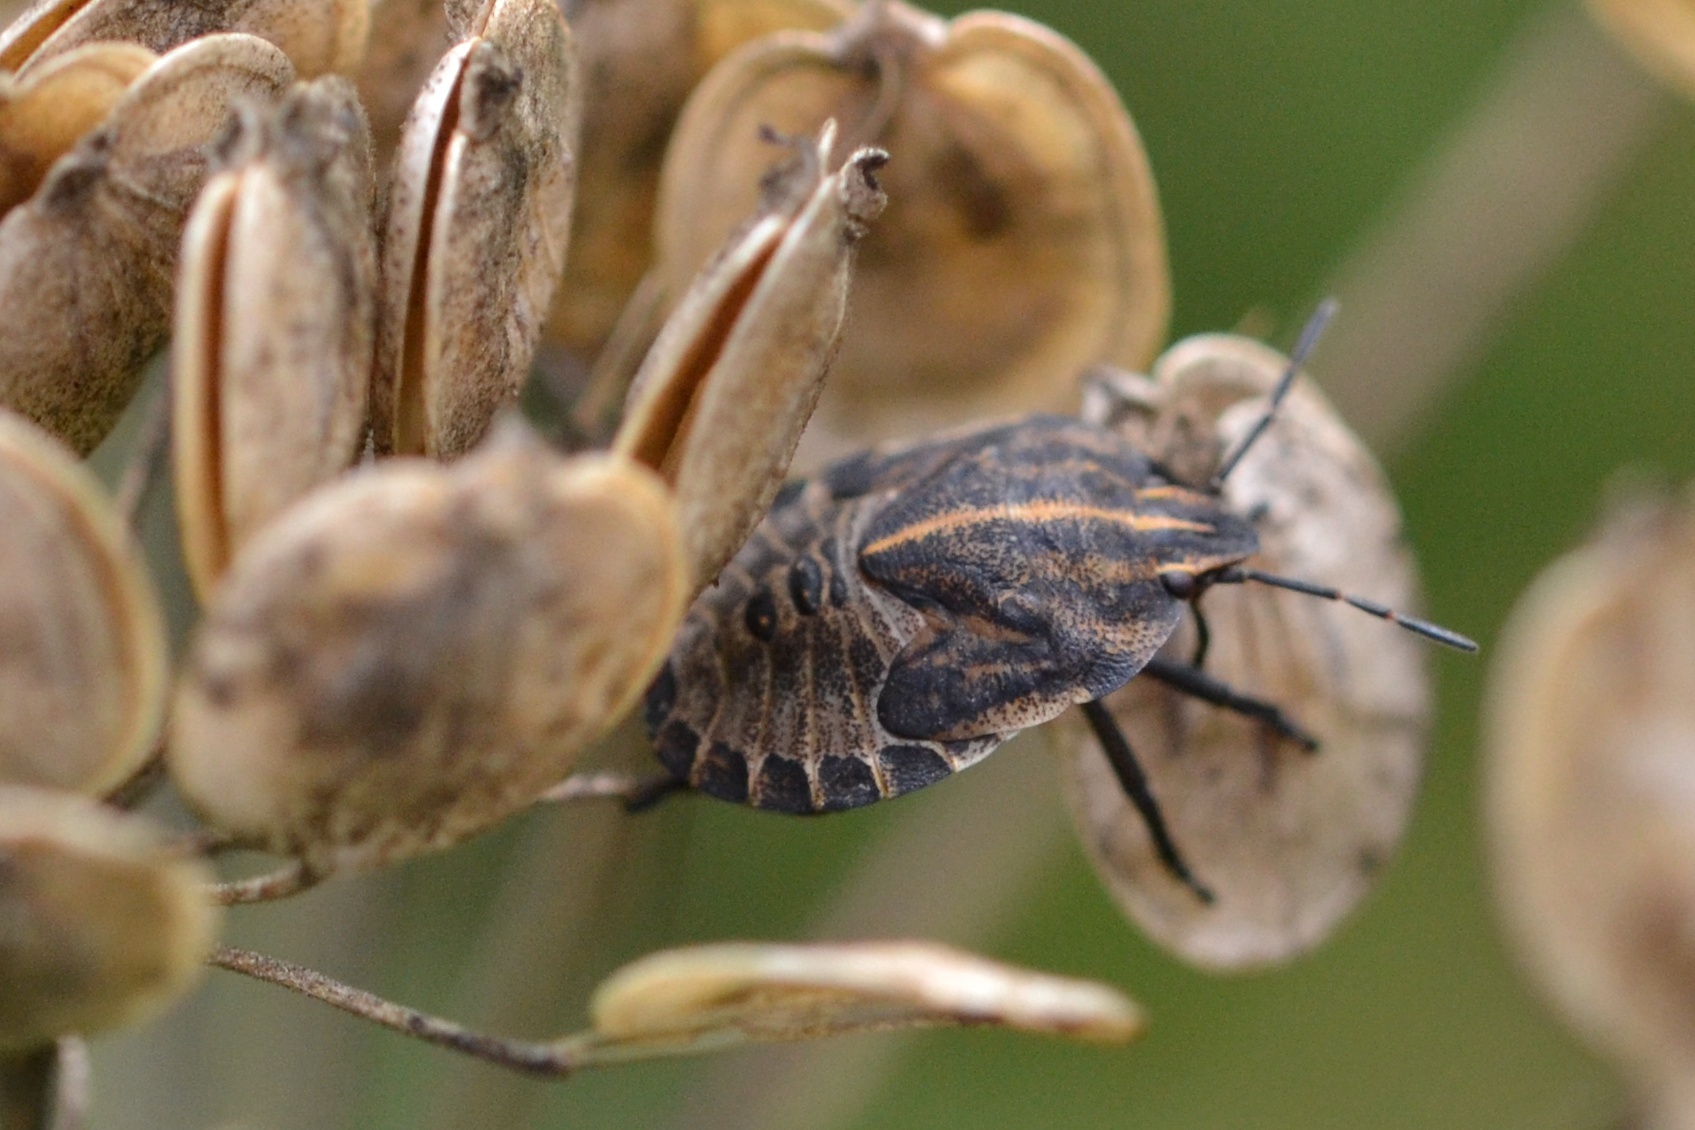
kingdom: Animalia
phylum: Arthropoda
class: Insecta
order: Hemiptera
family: Pentatomidae
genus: Graphosoma
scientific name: Graphosoma italicum
